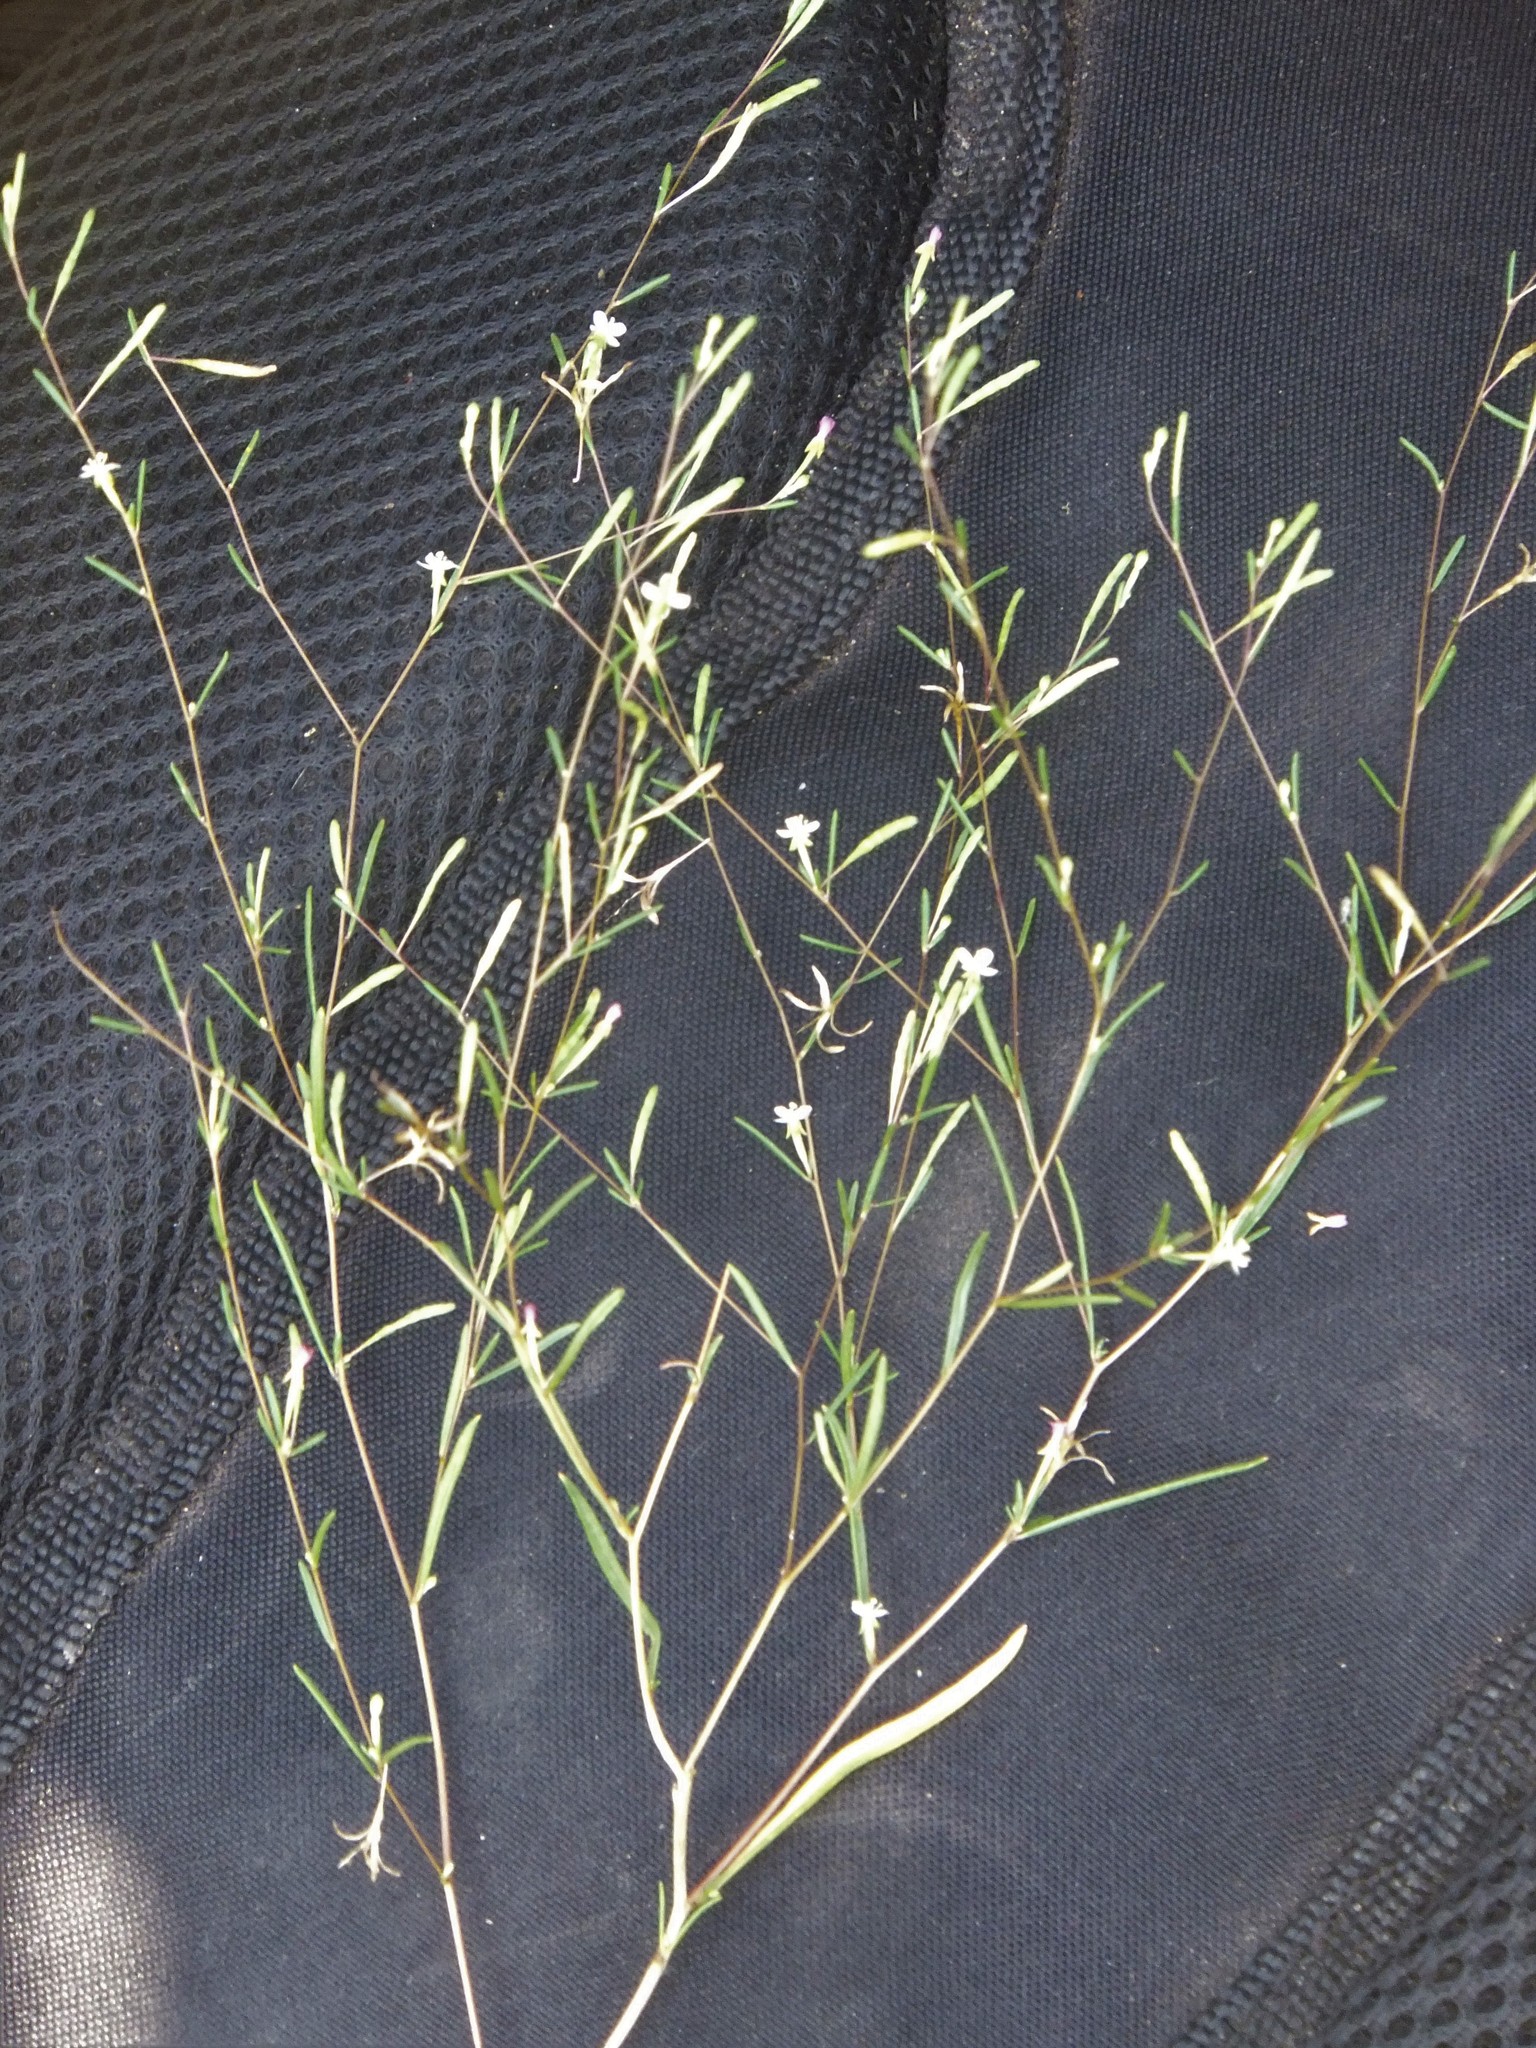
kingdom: Plantae
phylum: Tracheophyta
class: Magnoliopsida
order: Myrtales
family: Onagraceae
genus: Gayophytum
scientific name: Gayophytum ramosissimum
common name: Hairstem groundsmoke
